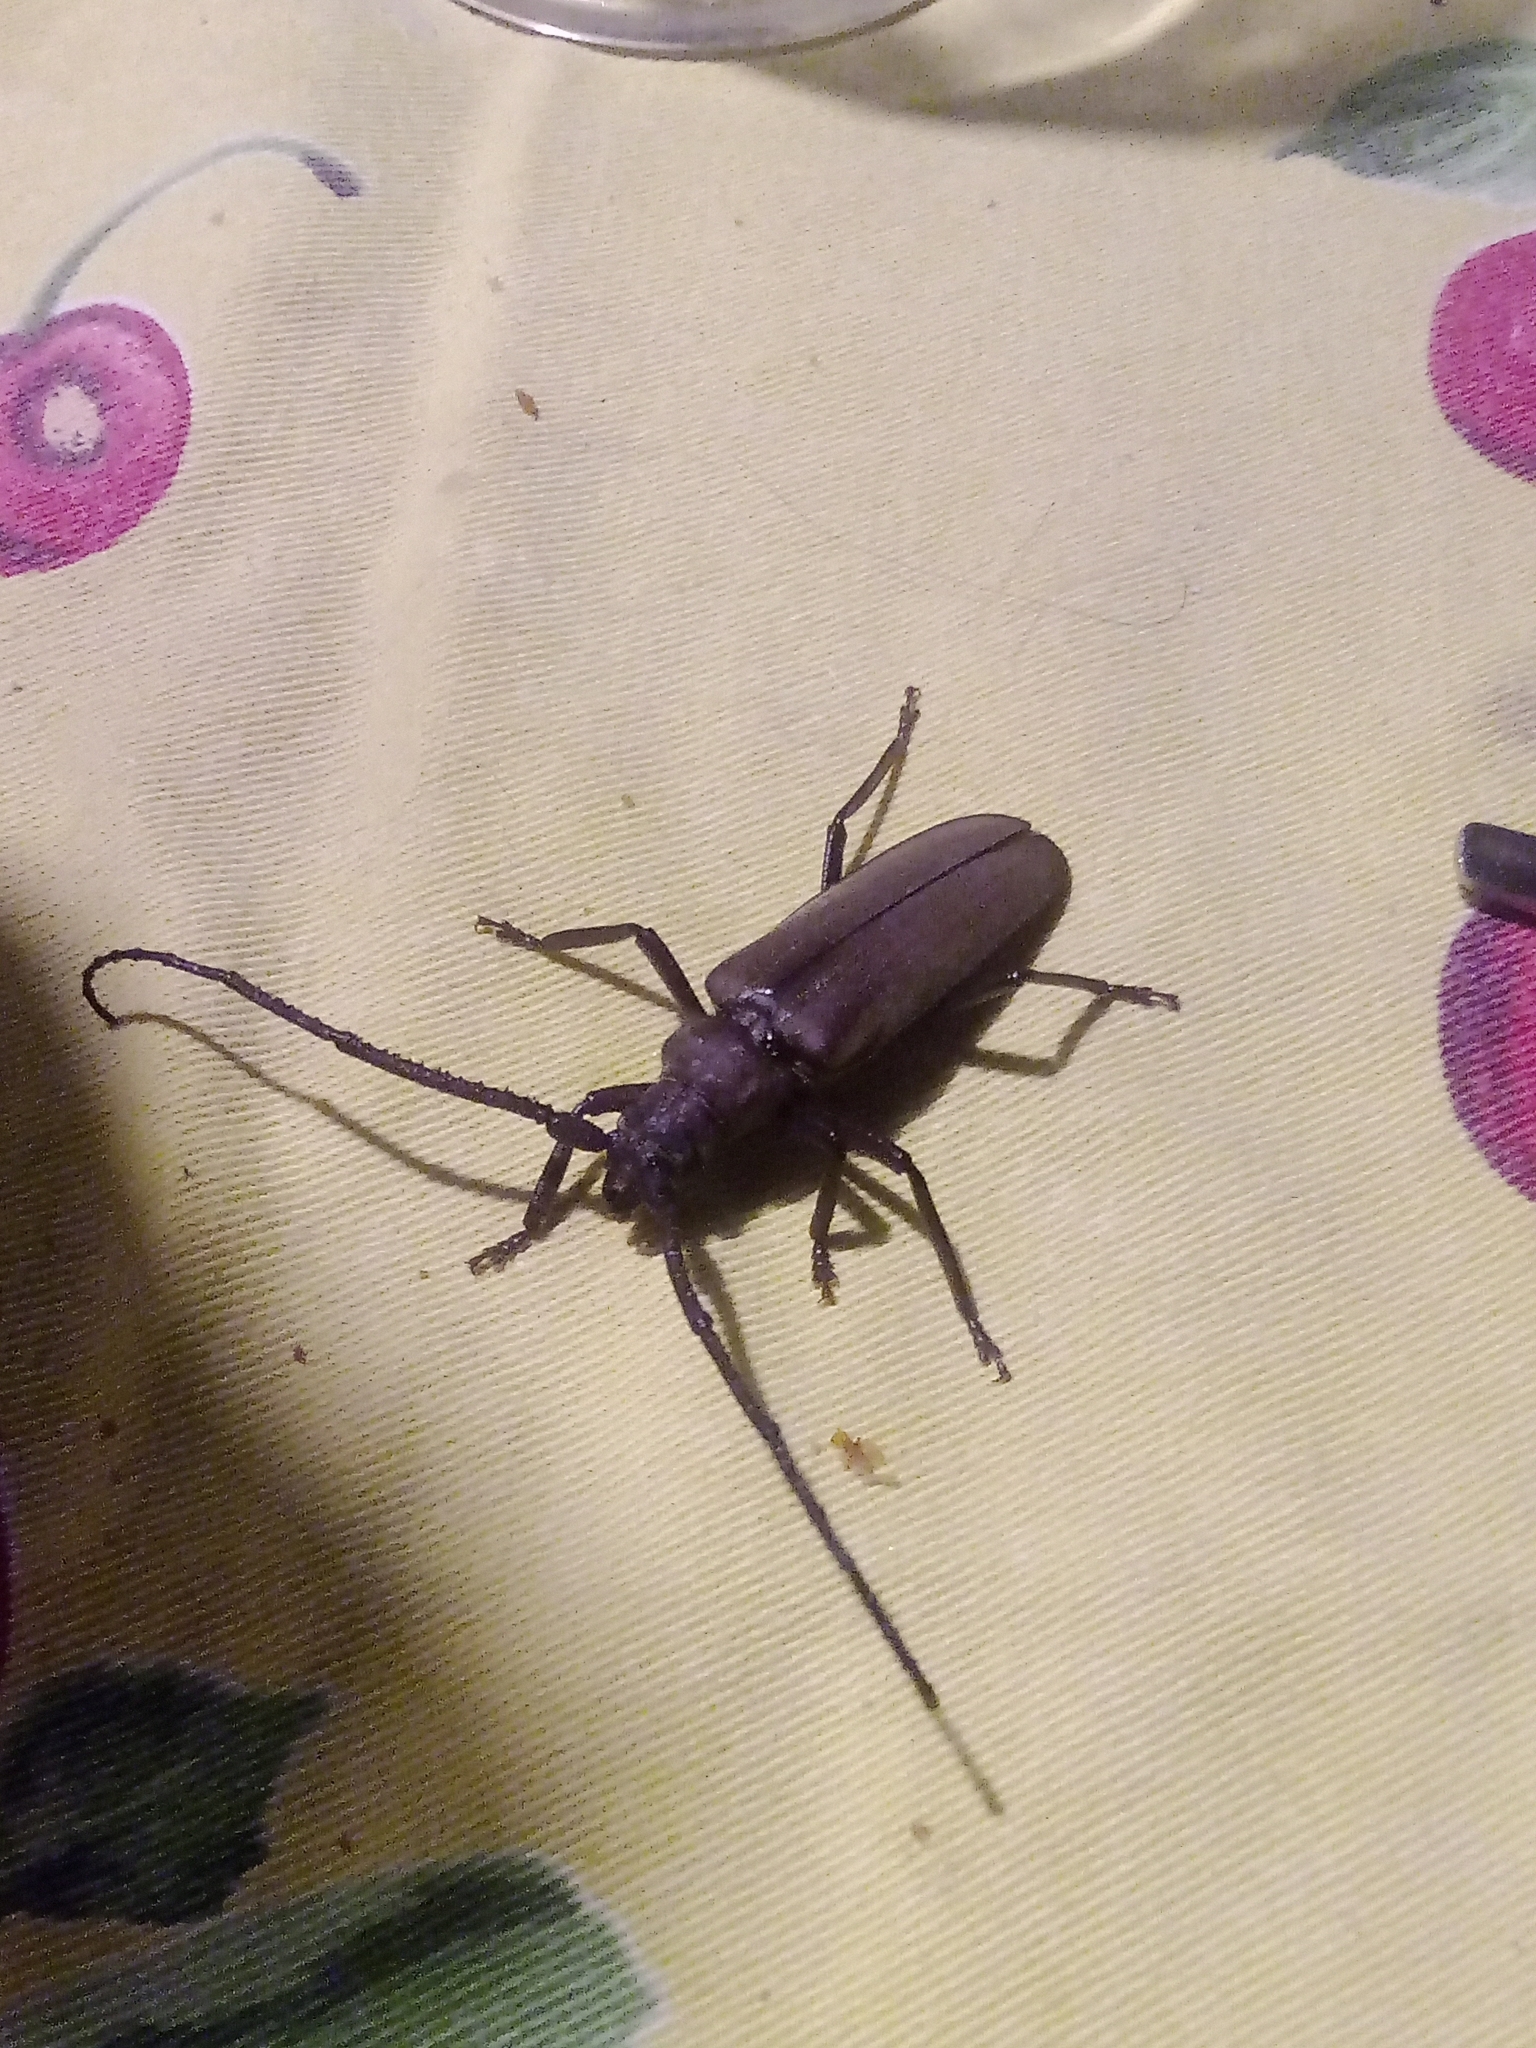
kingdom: Animalia
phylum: Arthropoda
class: Insecta
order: Coleoptera
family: Cerambycidae
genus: Aegosoma
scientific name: Aegosoma scabricorne
